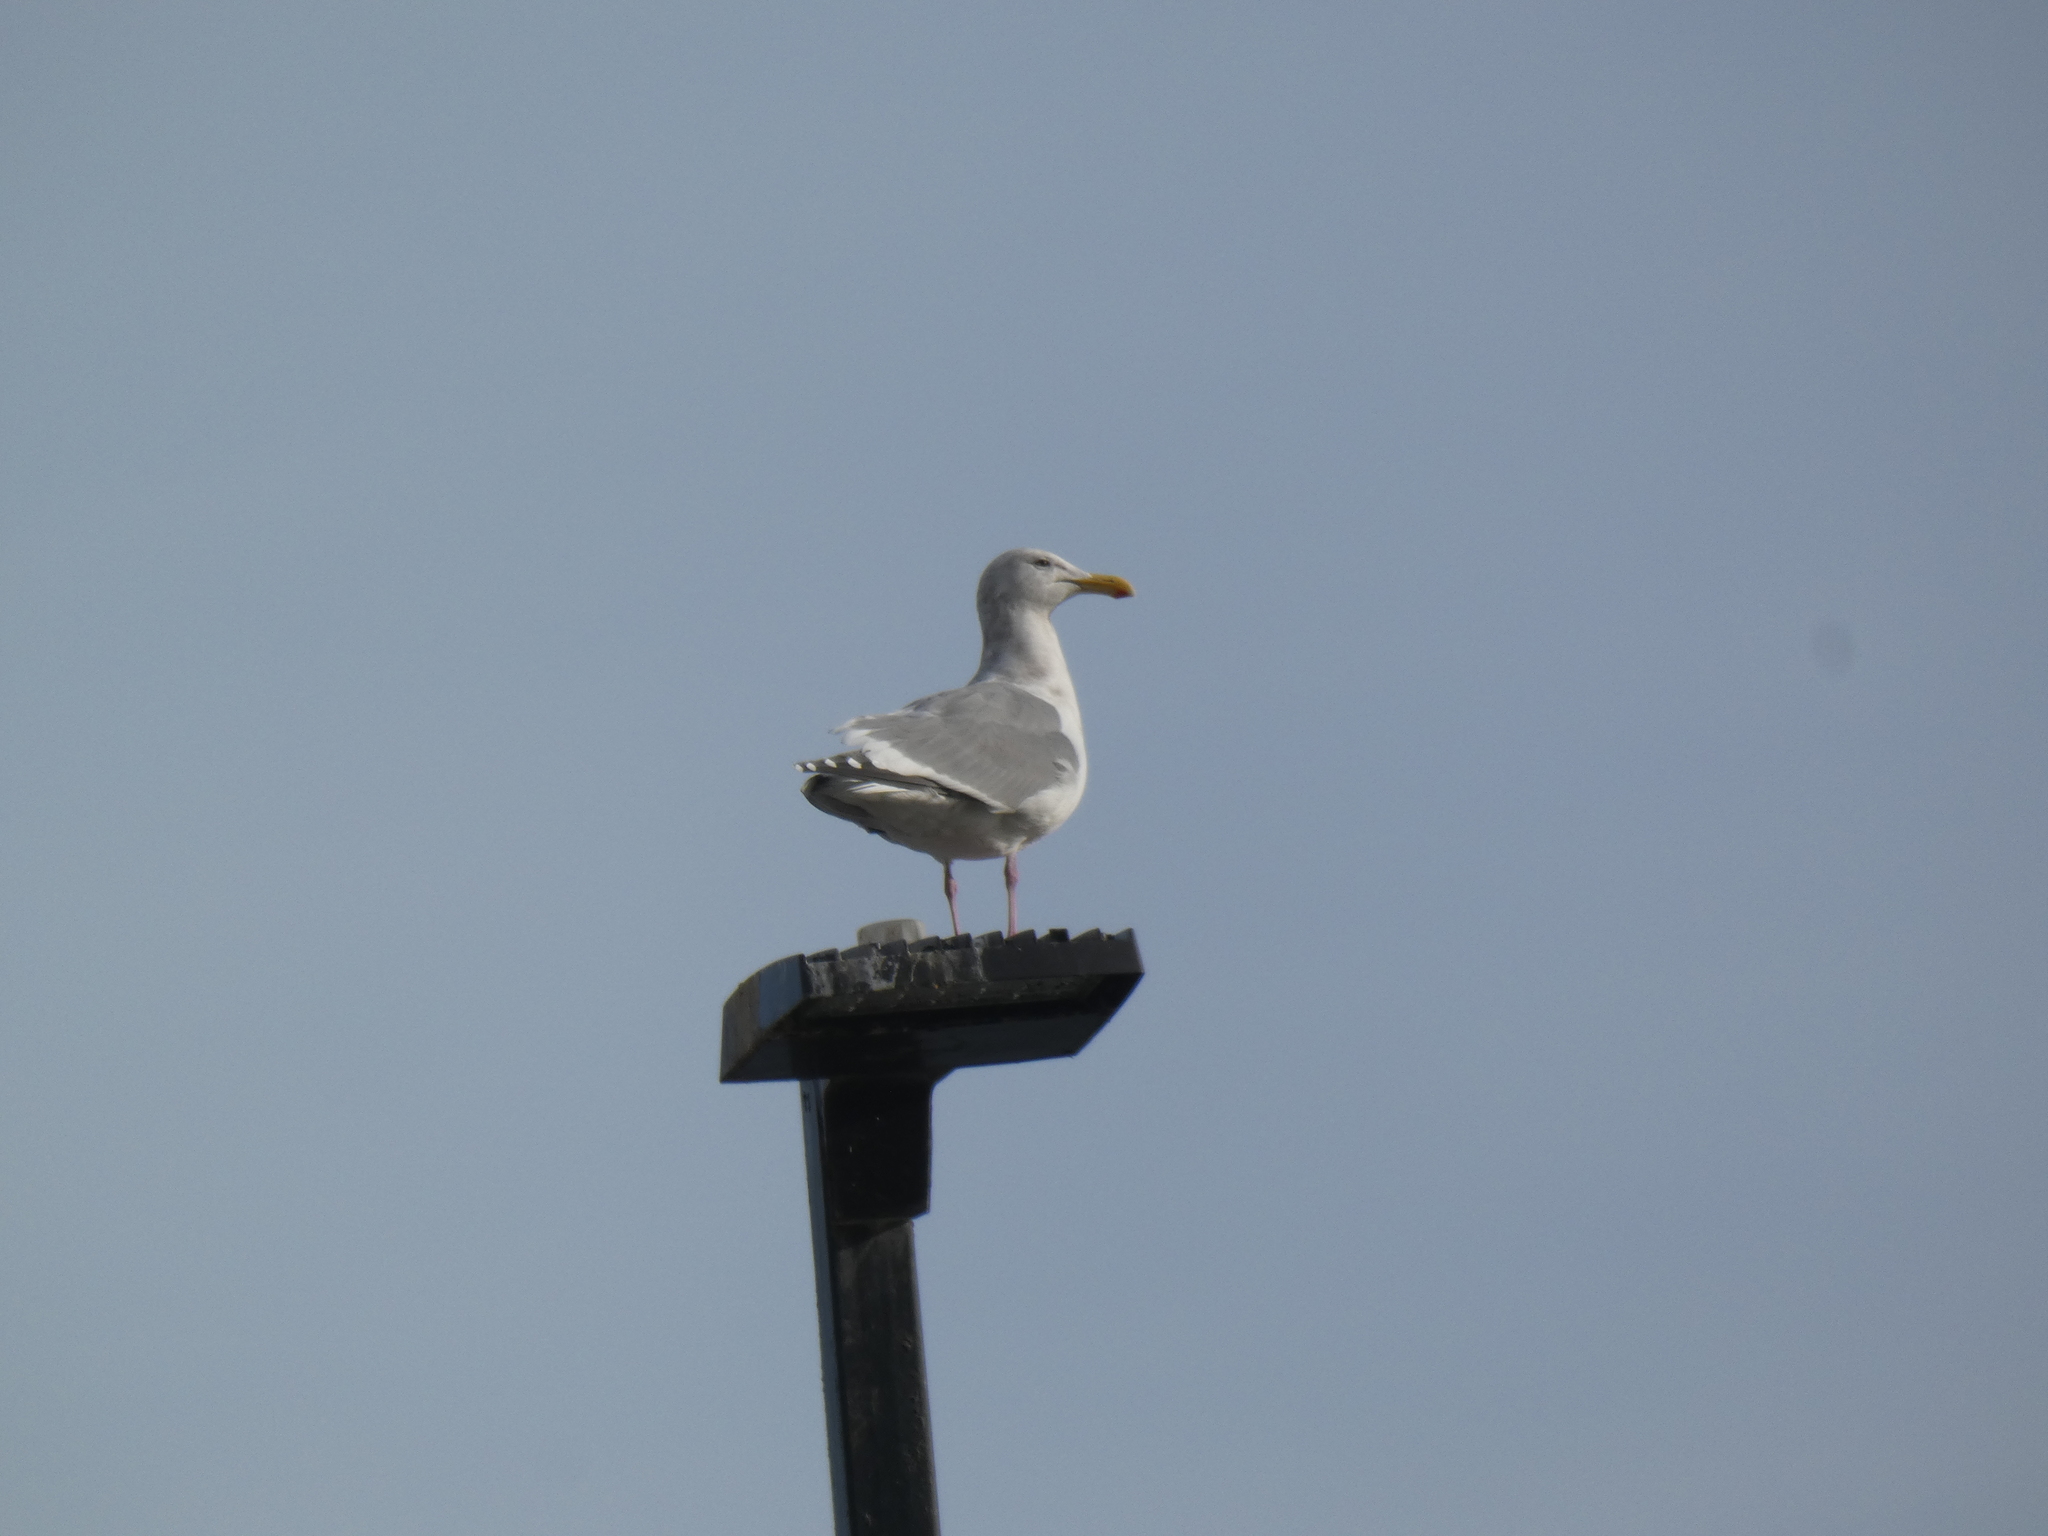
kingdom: Animalia
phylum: Chordata
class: Aves
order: Charadriiformes
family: Laridae
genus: Larus
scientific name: Larus
